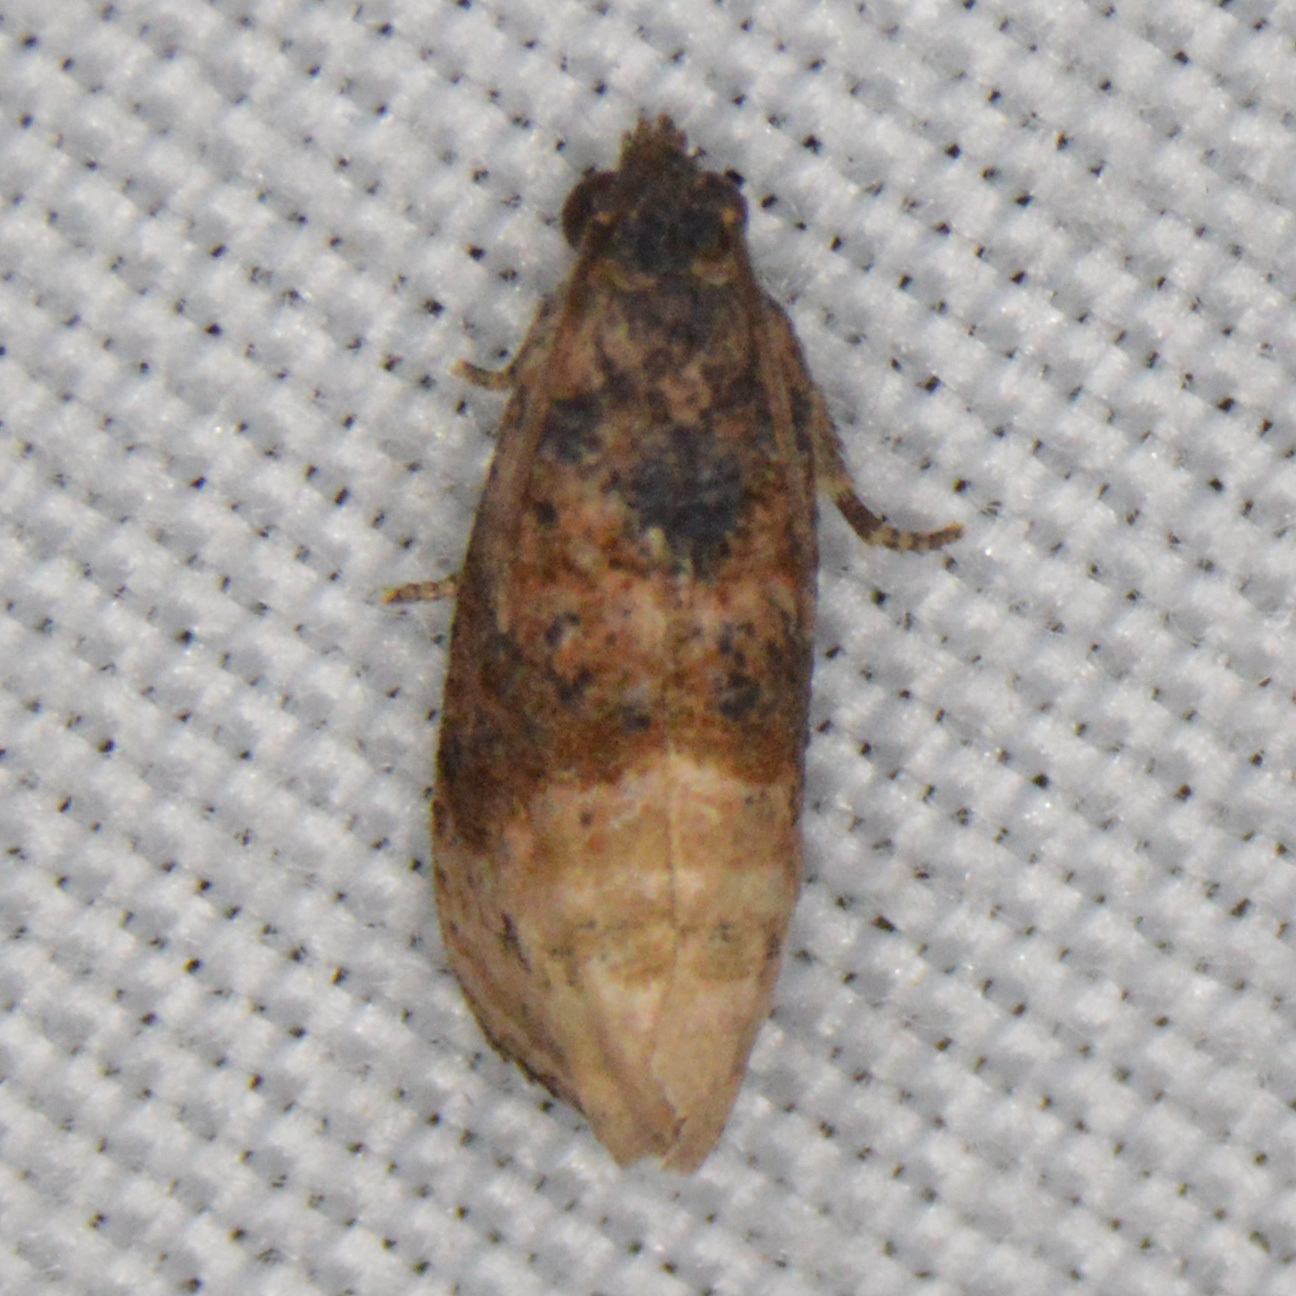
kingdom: Animalia
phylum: Arthropoda
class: Insecta
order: Lepidoptera
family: Tortricidae
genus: Ecdytolopha
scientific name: Ecdytolopha mana
